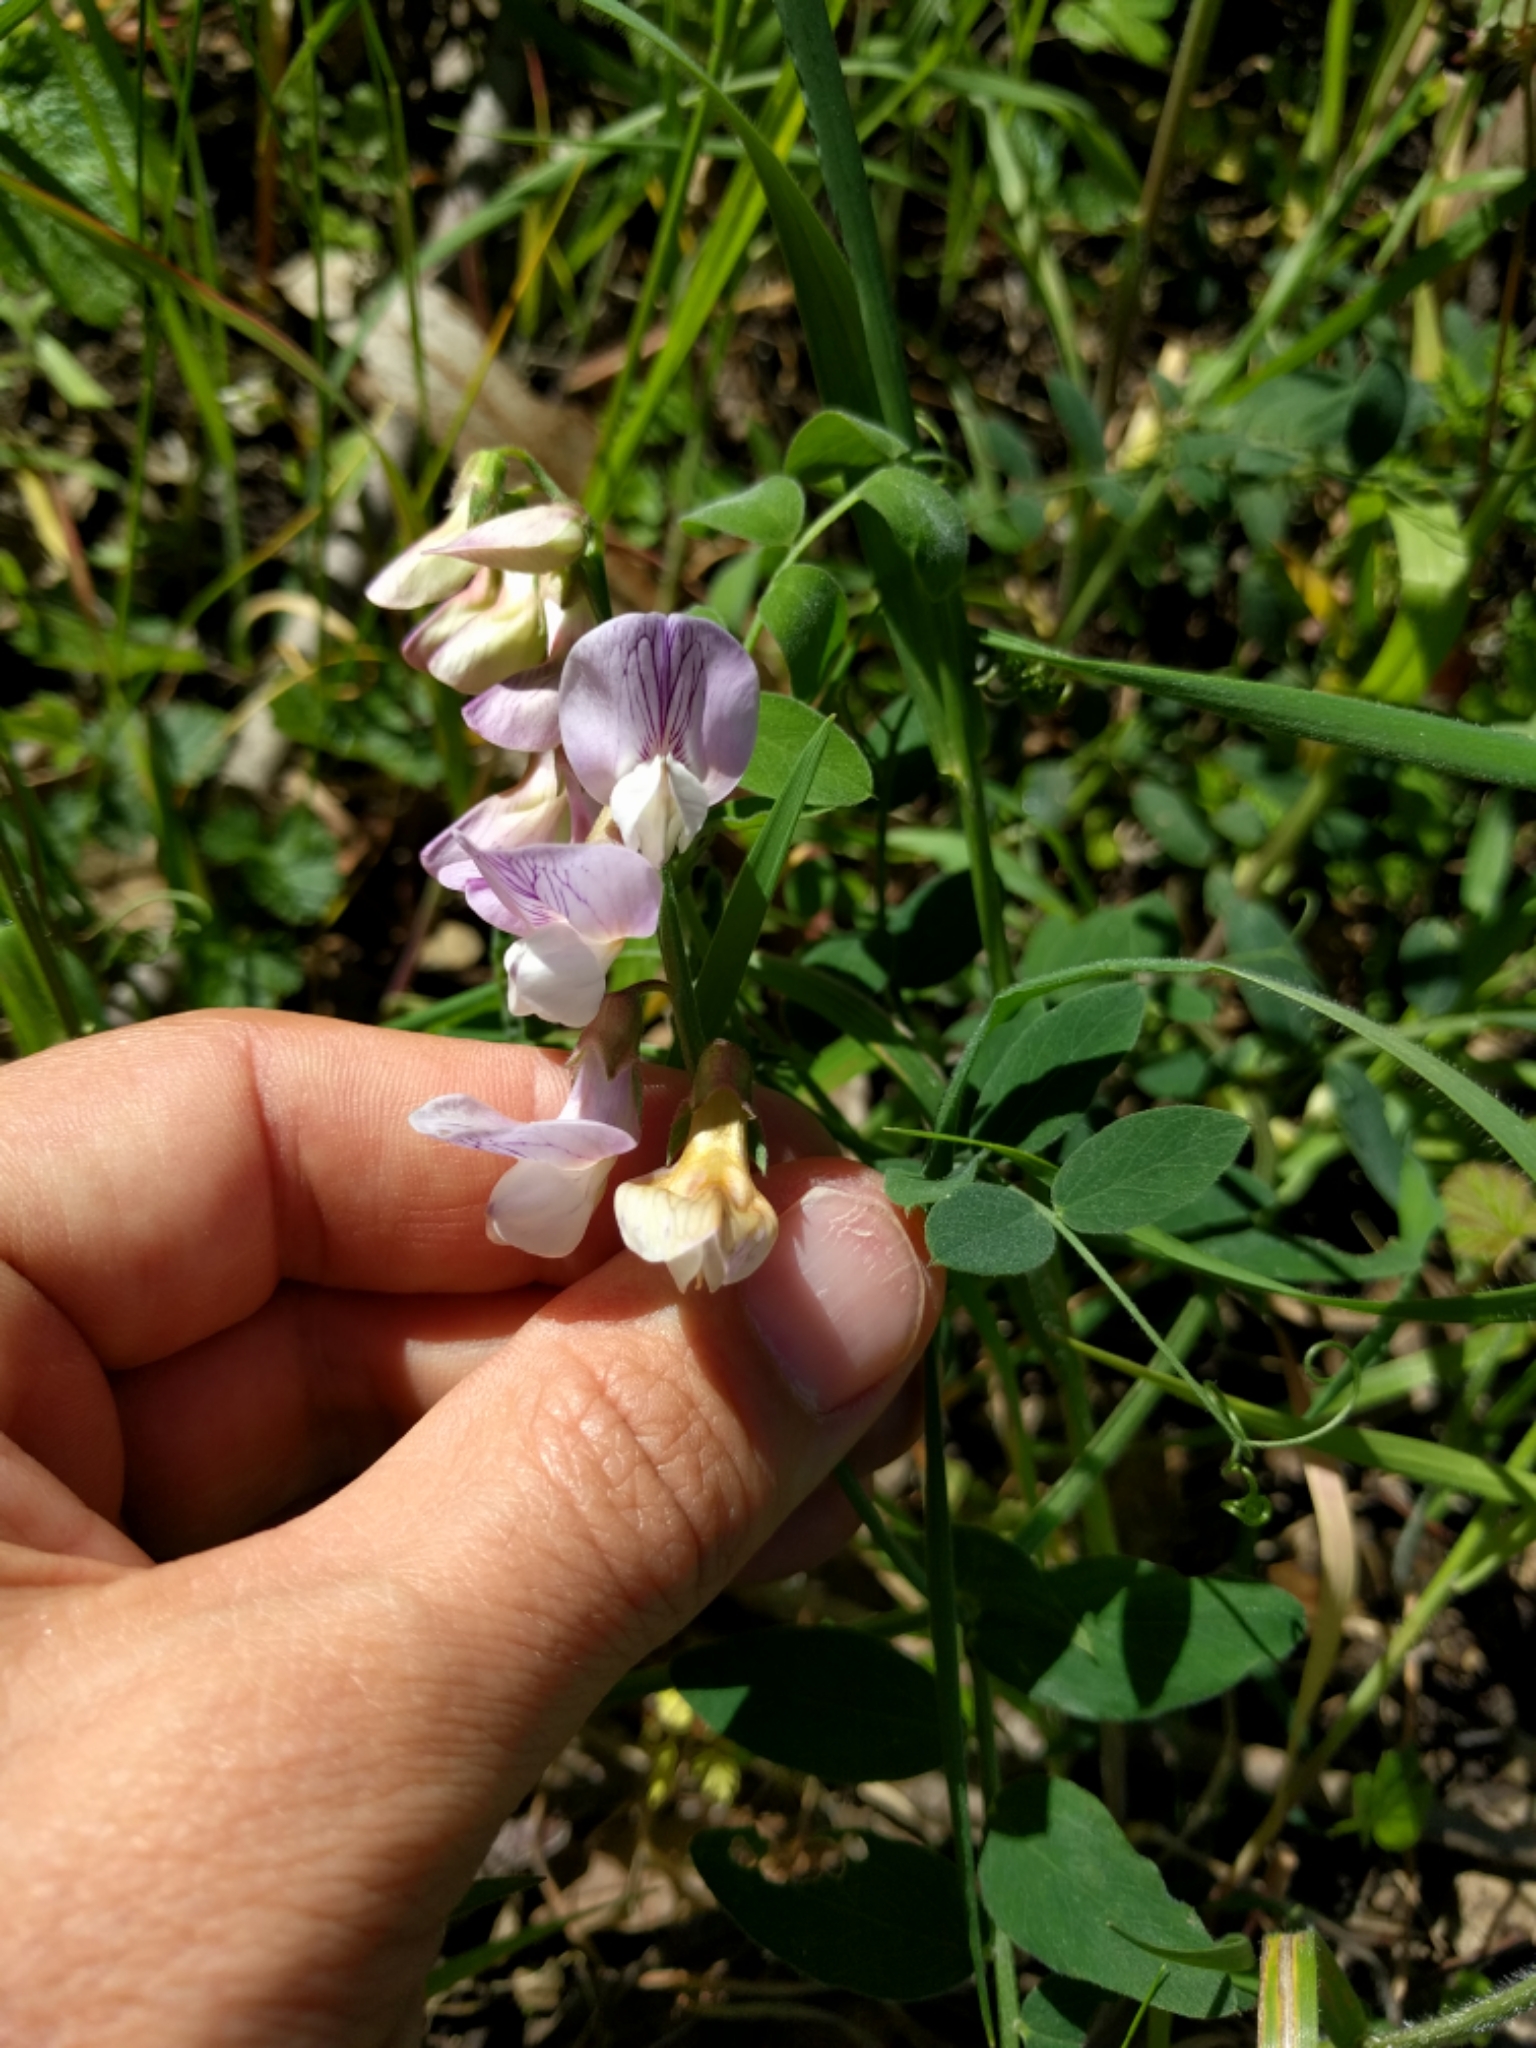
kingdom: Plantae
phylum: Tracheophyta
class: Magnoliopsida
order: Fabales
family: Fabaceae
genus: Lathyrus
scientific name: Lathyrus vestitus
